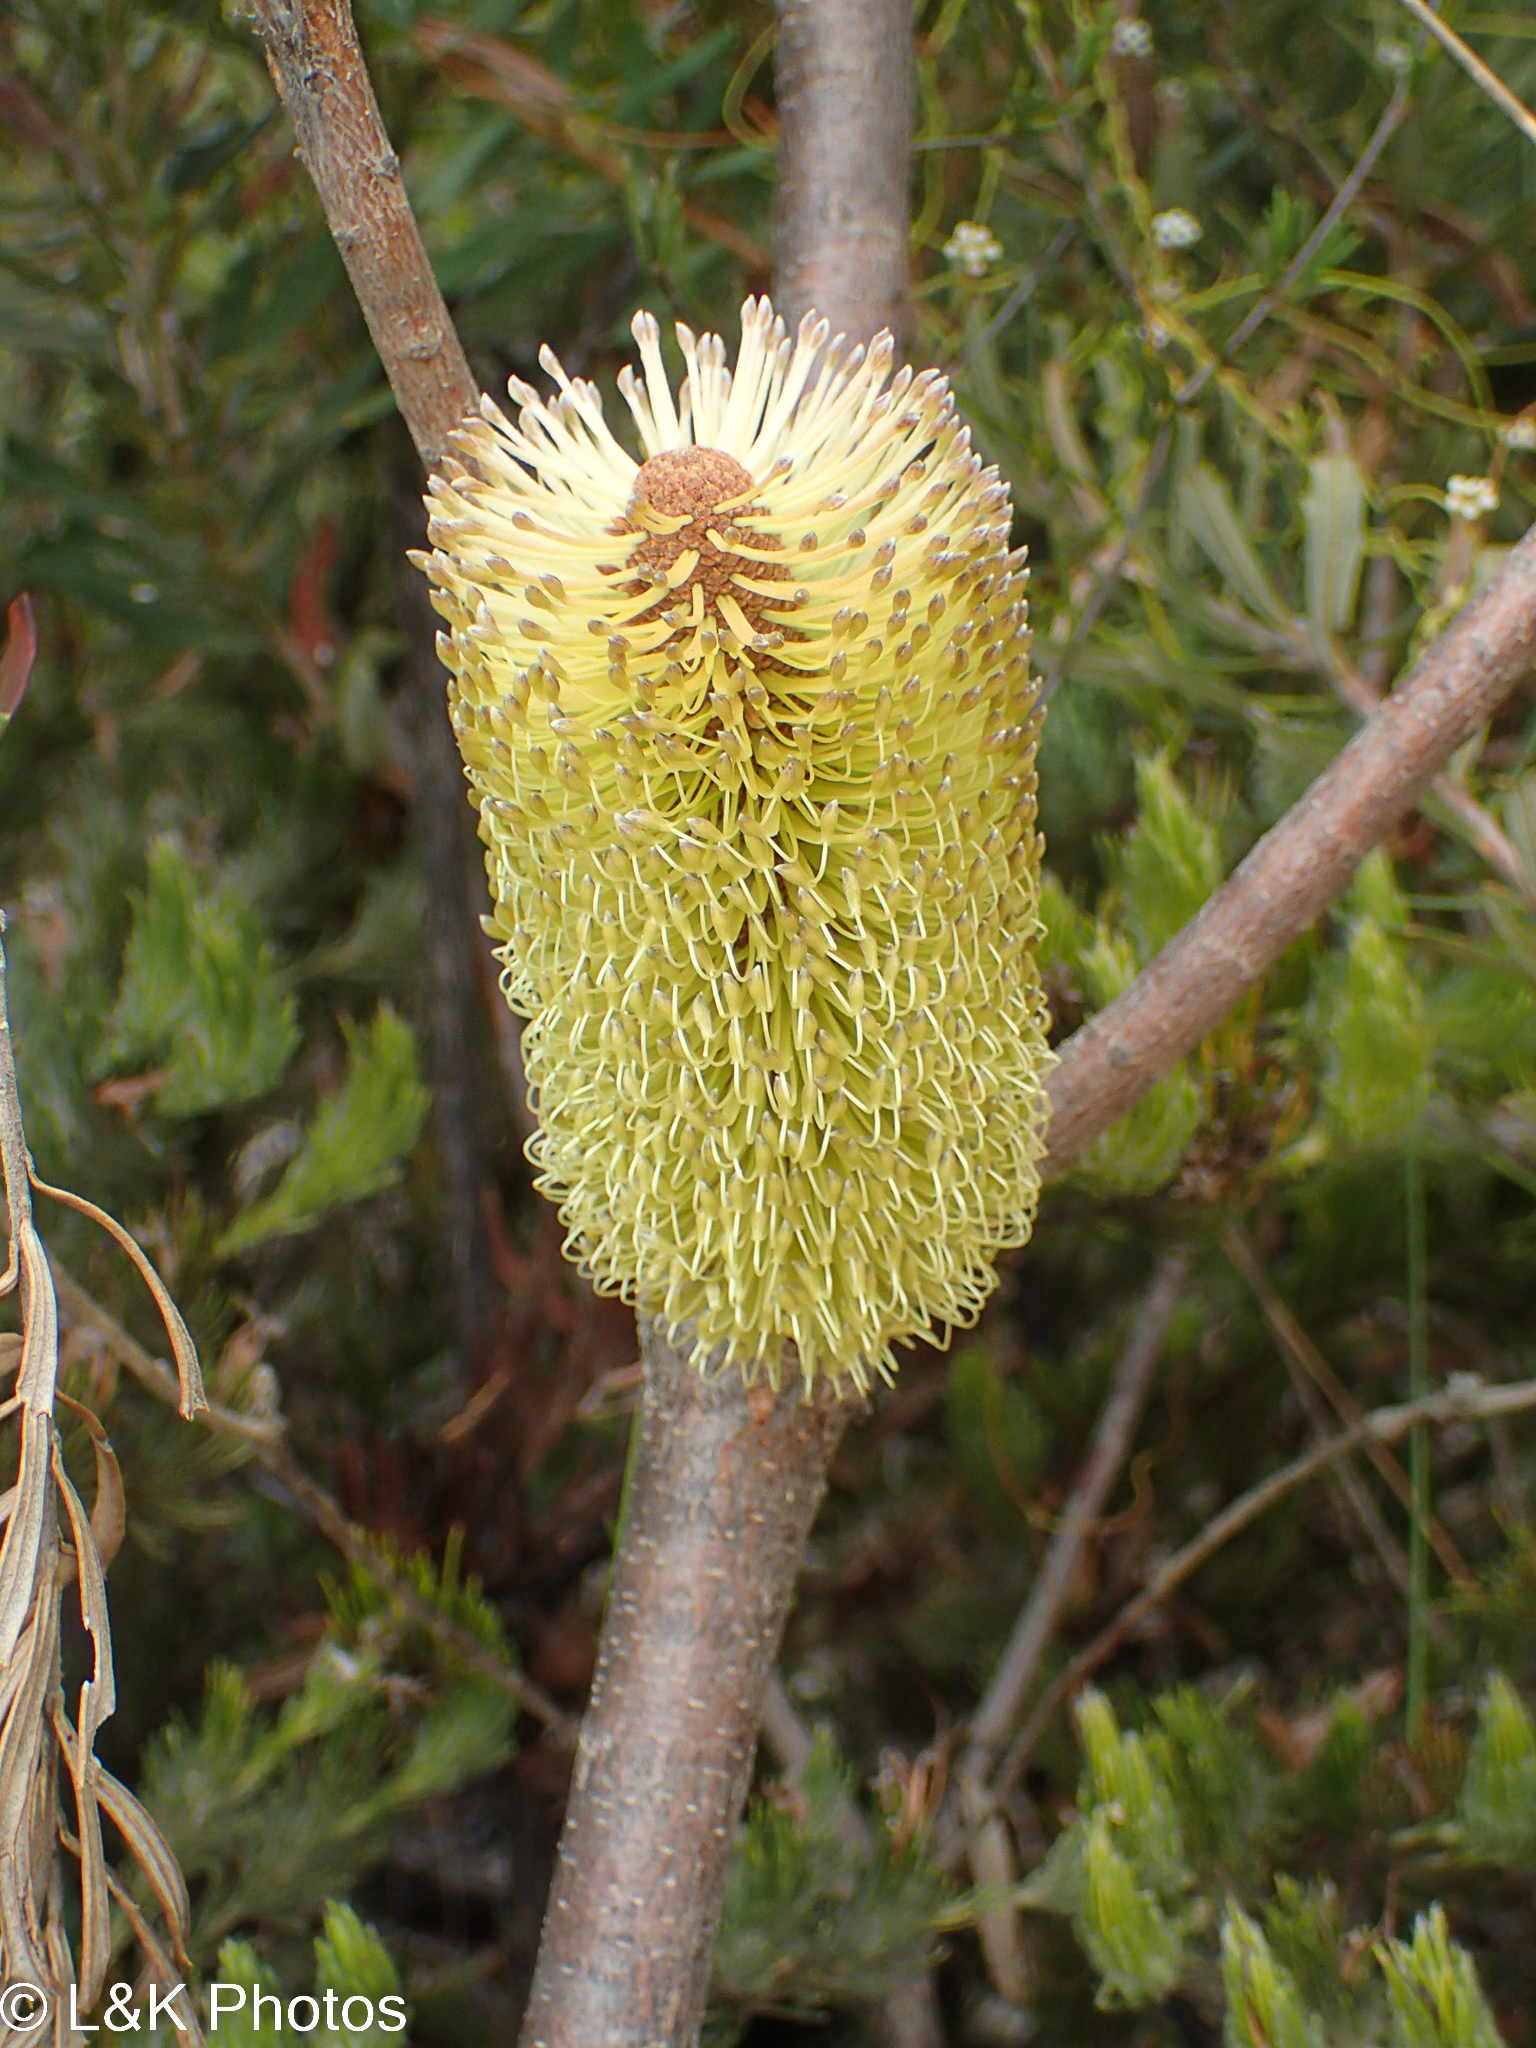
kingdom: Plantae
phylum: Tracheophyta
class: Magnoliopsida
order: Proteales
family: Proteaceae
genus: Banksia
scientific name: Banksia marginata
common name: Silver banksia
